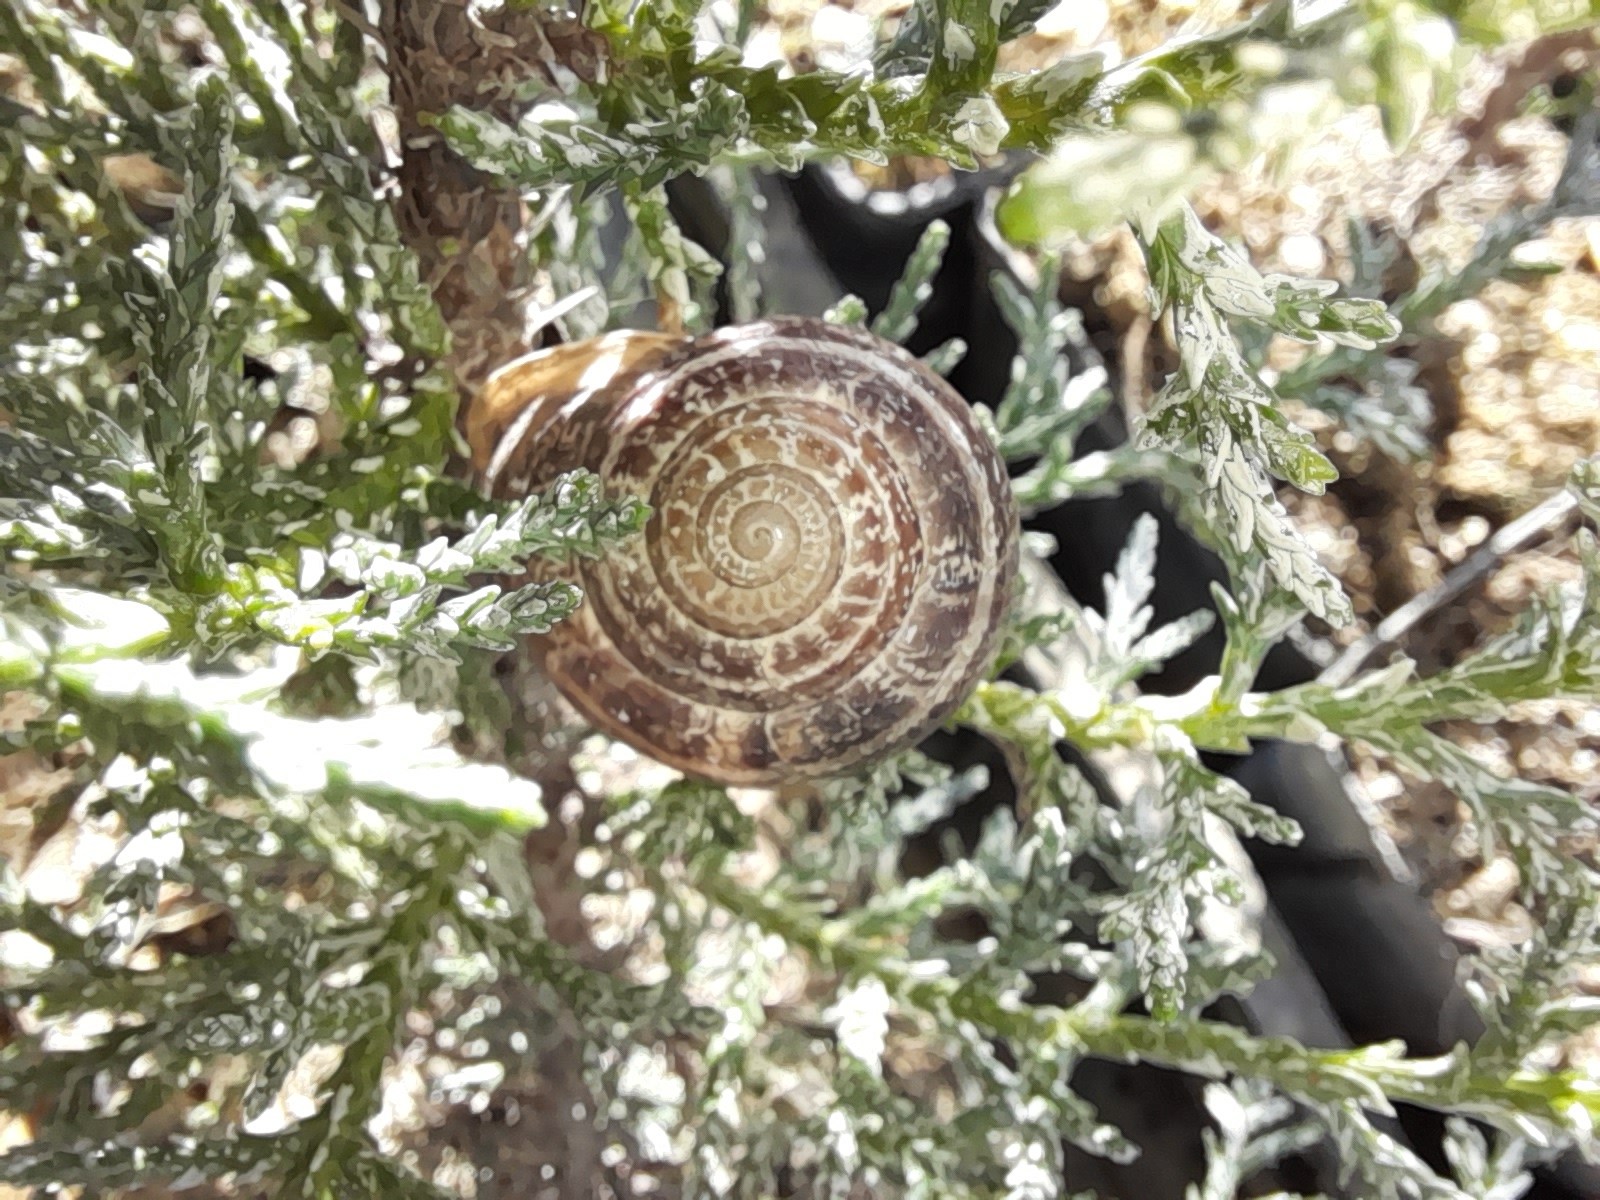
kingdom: Animalia
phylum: Mollusca
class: Gastropoda
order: Stylommatophora
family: Helicidae
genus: Eobania
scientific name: Eobania vermiculata
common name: Chocolateband snail
